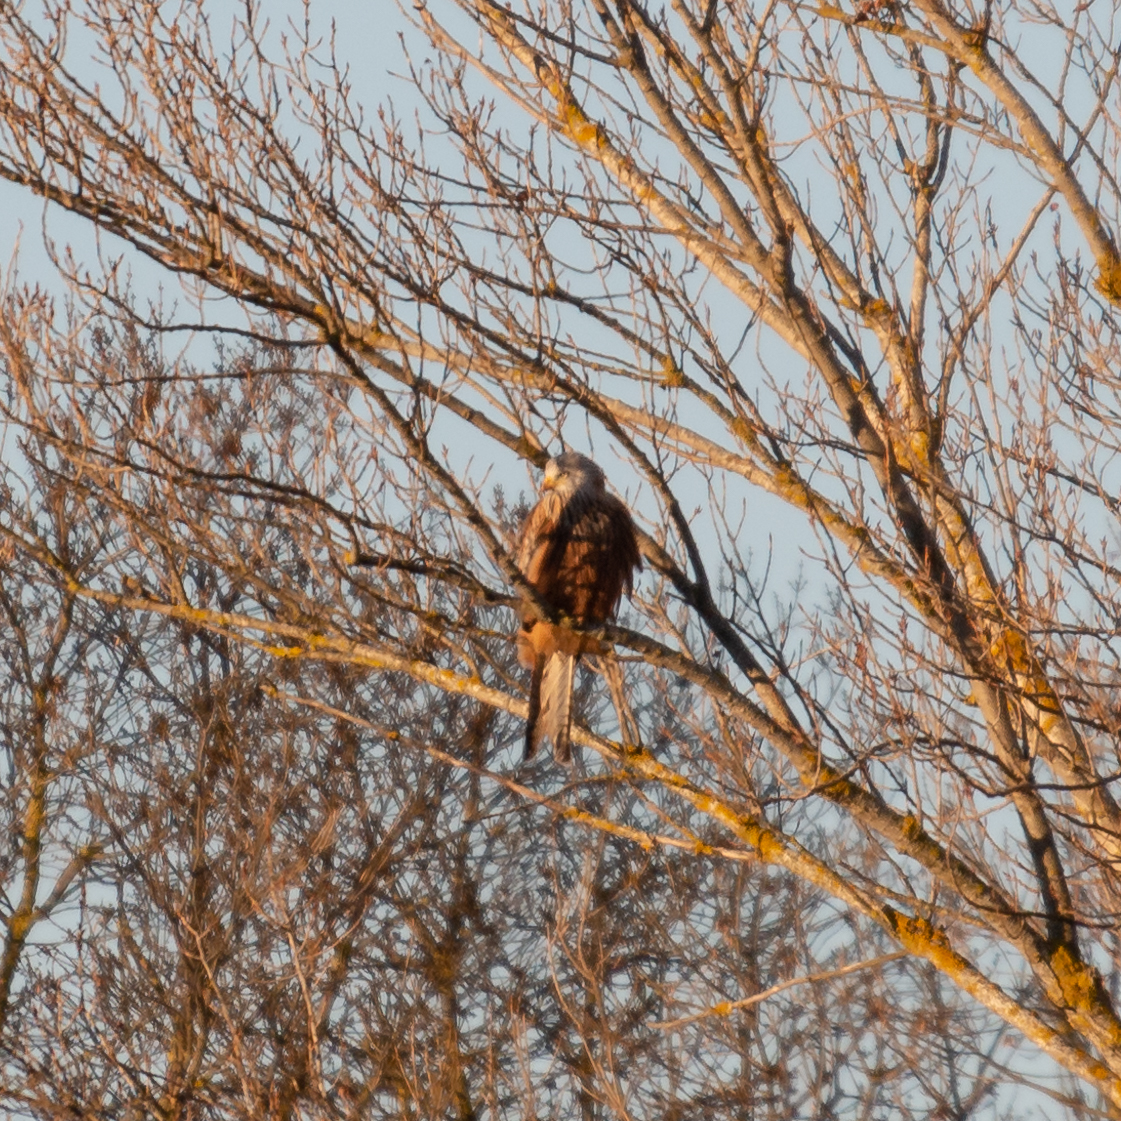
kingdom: Animalia
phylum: Chordata
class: Aves
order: Accipitriformes
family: Accipitridae
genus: Milvus
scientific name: Milvus milvus
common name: Red kite
